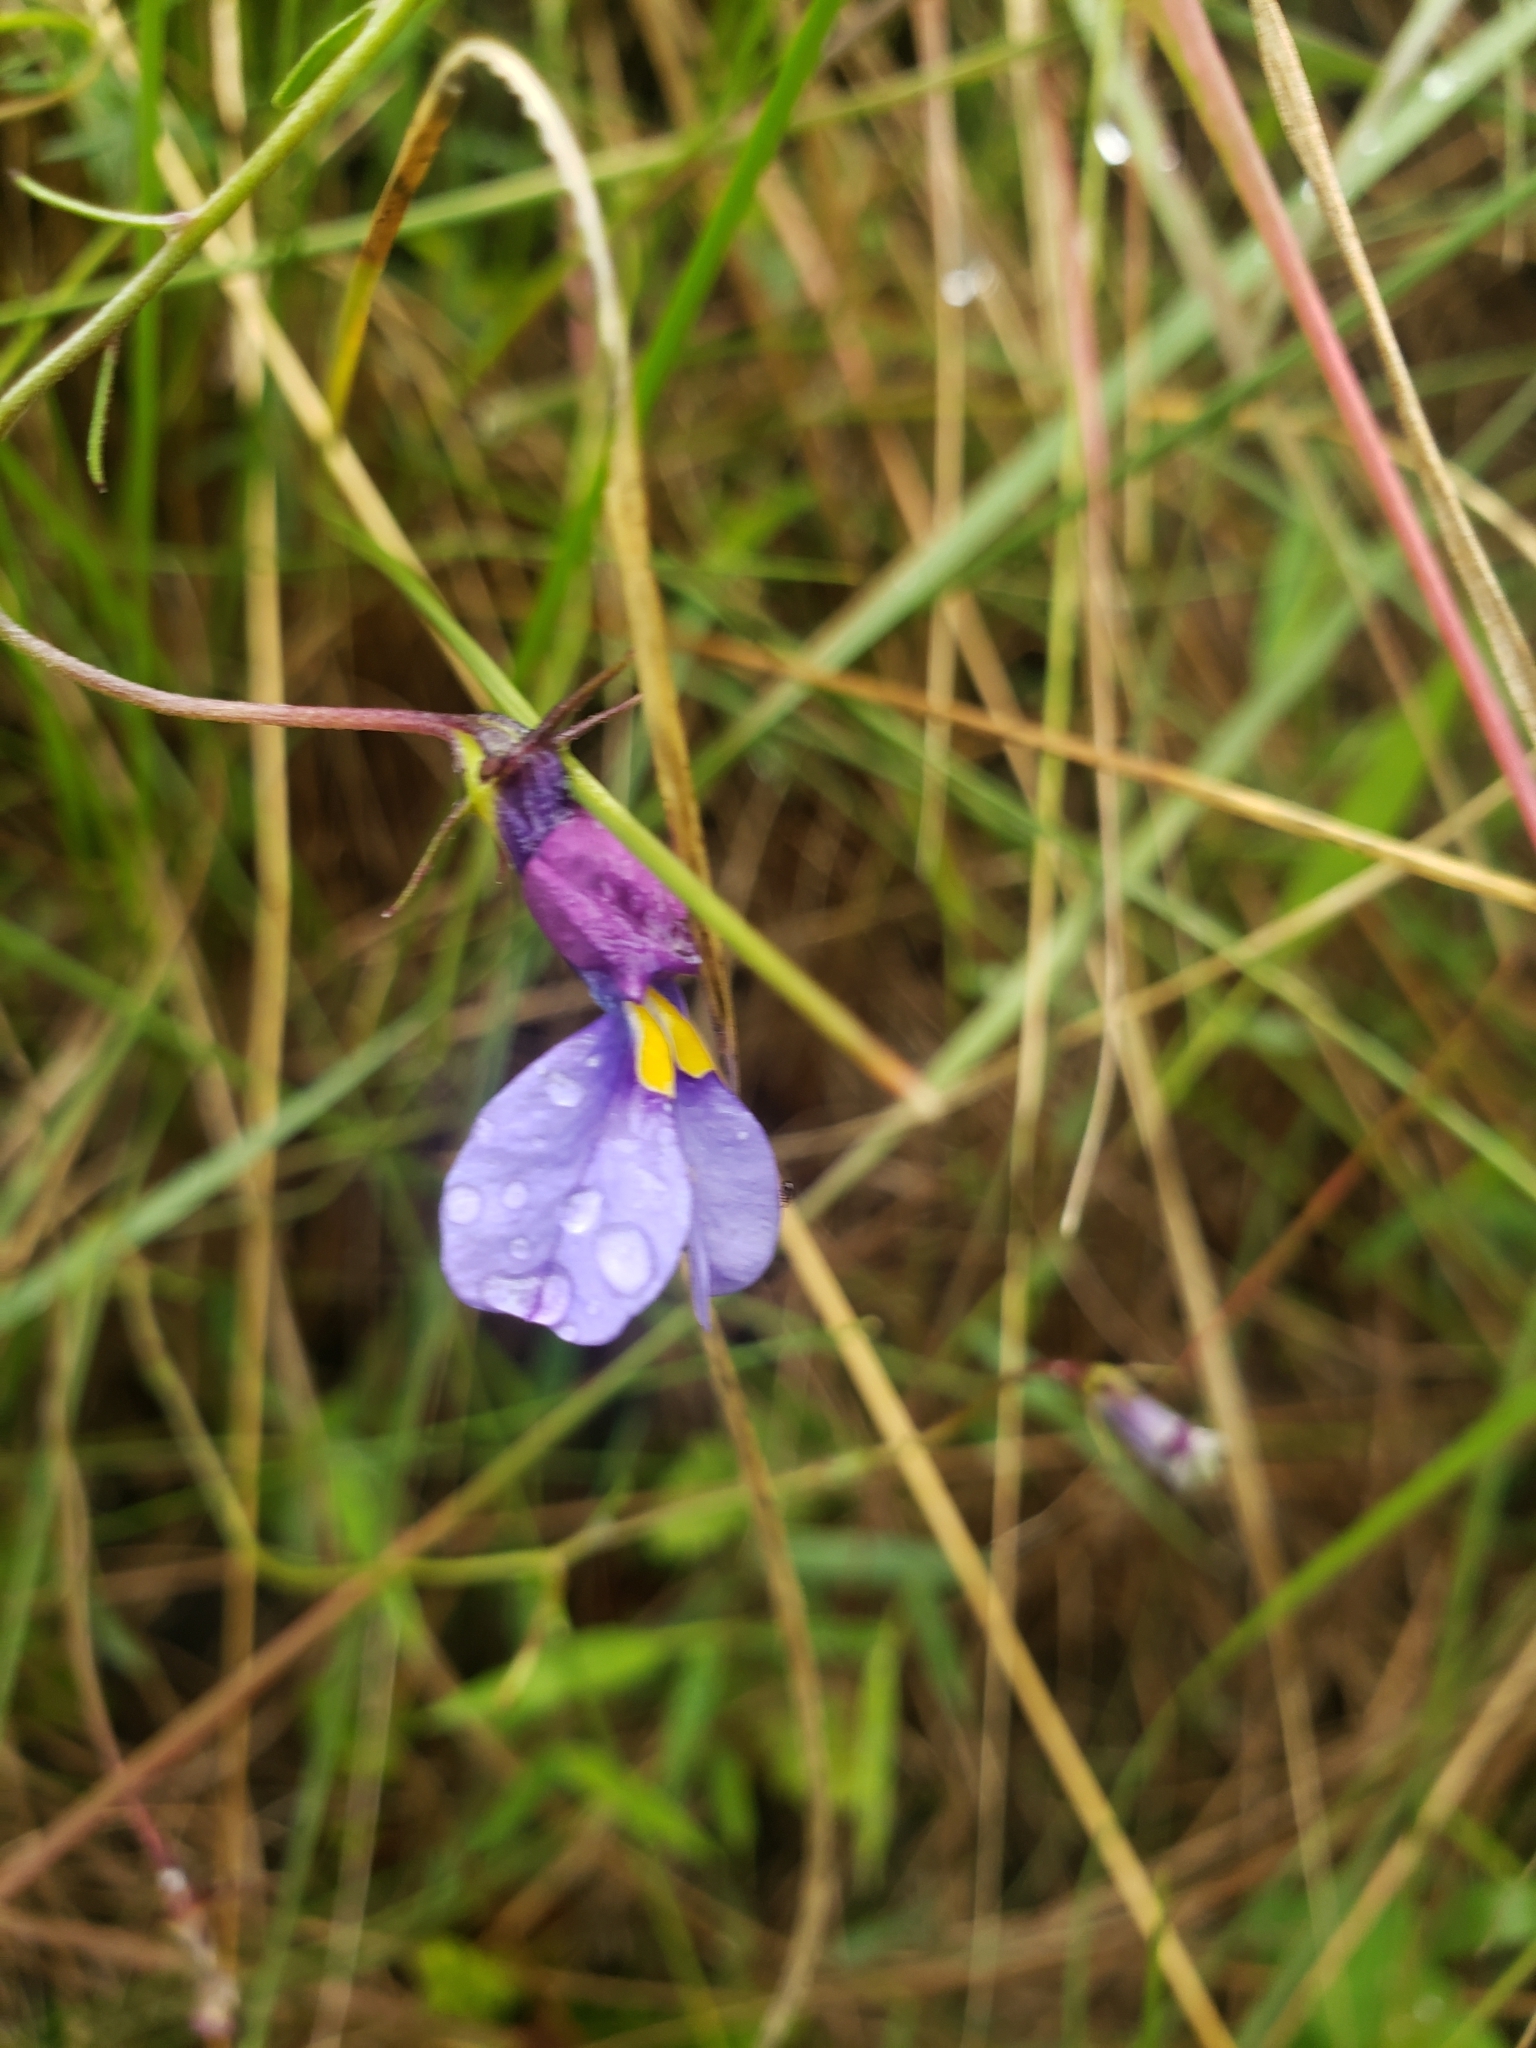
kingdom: Plantae
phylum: Tracheophyta
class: Magnoliopsida
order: Asterales
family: Campanulaceae
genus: Monopsis
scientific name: Monopsis decipiens
